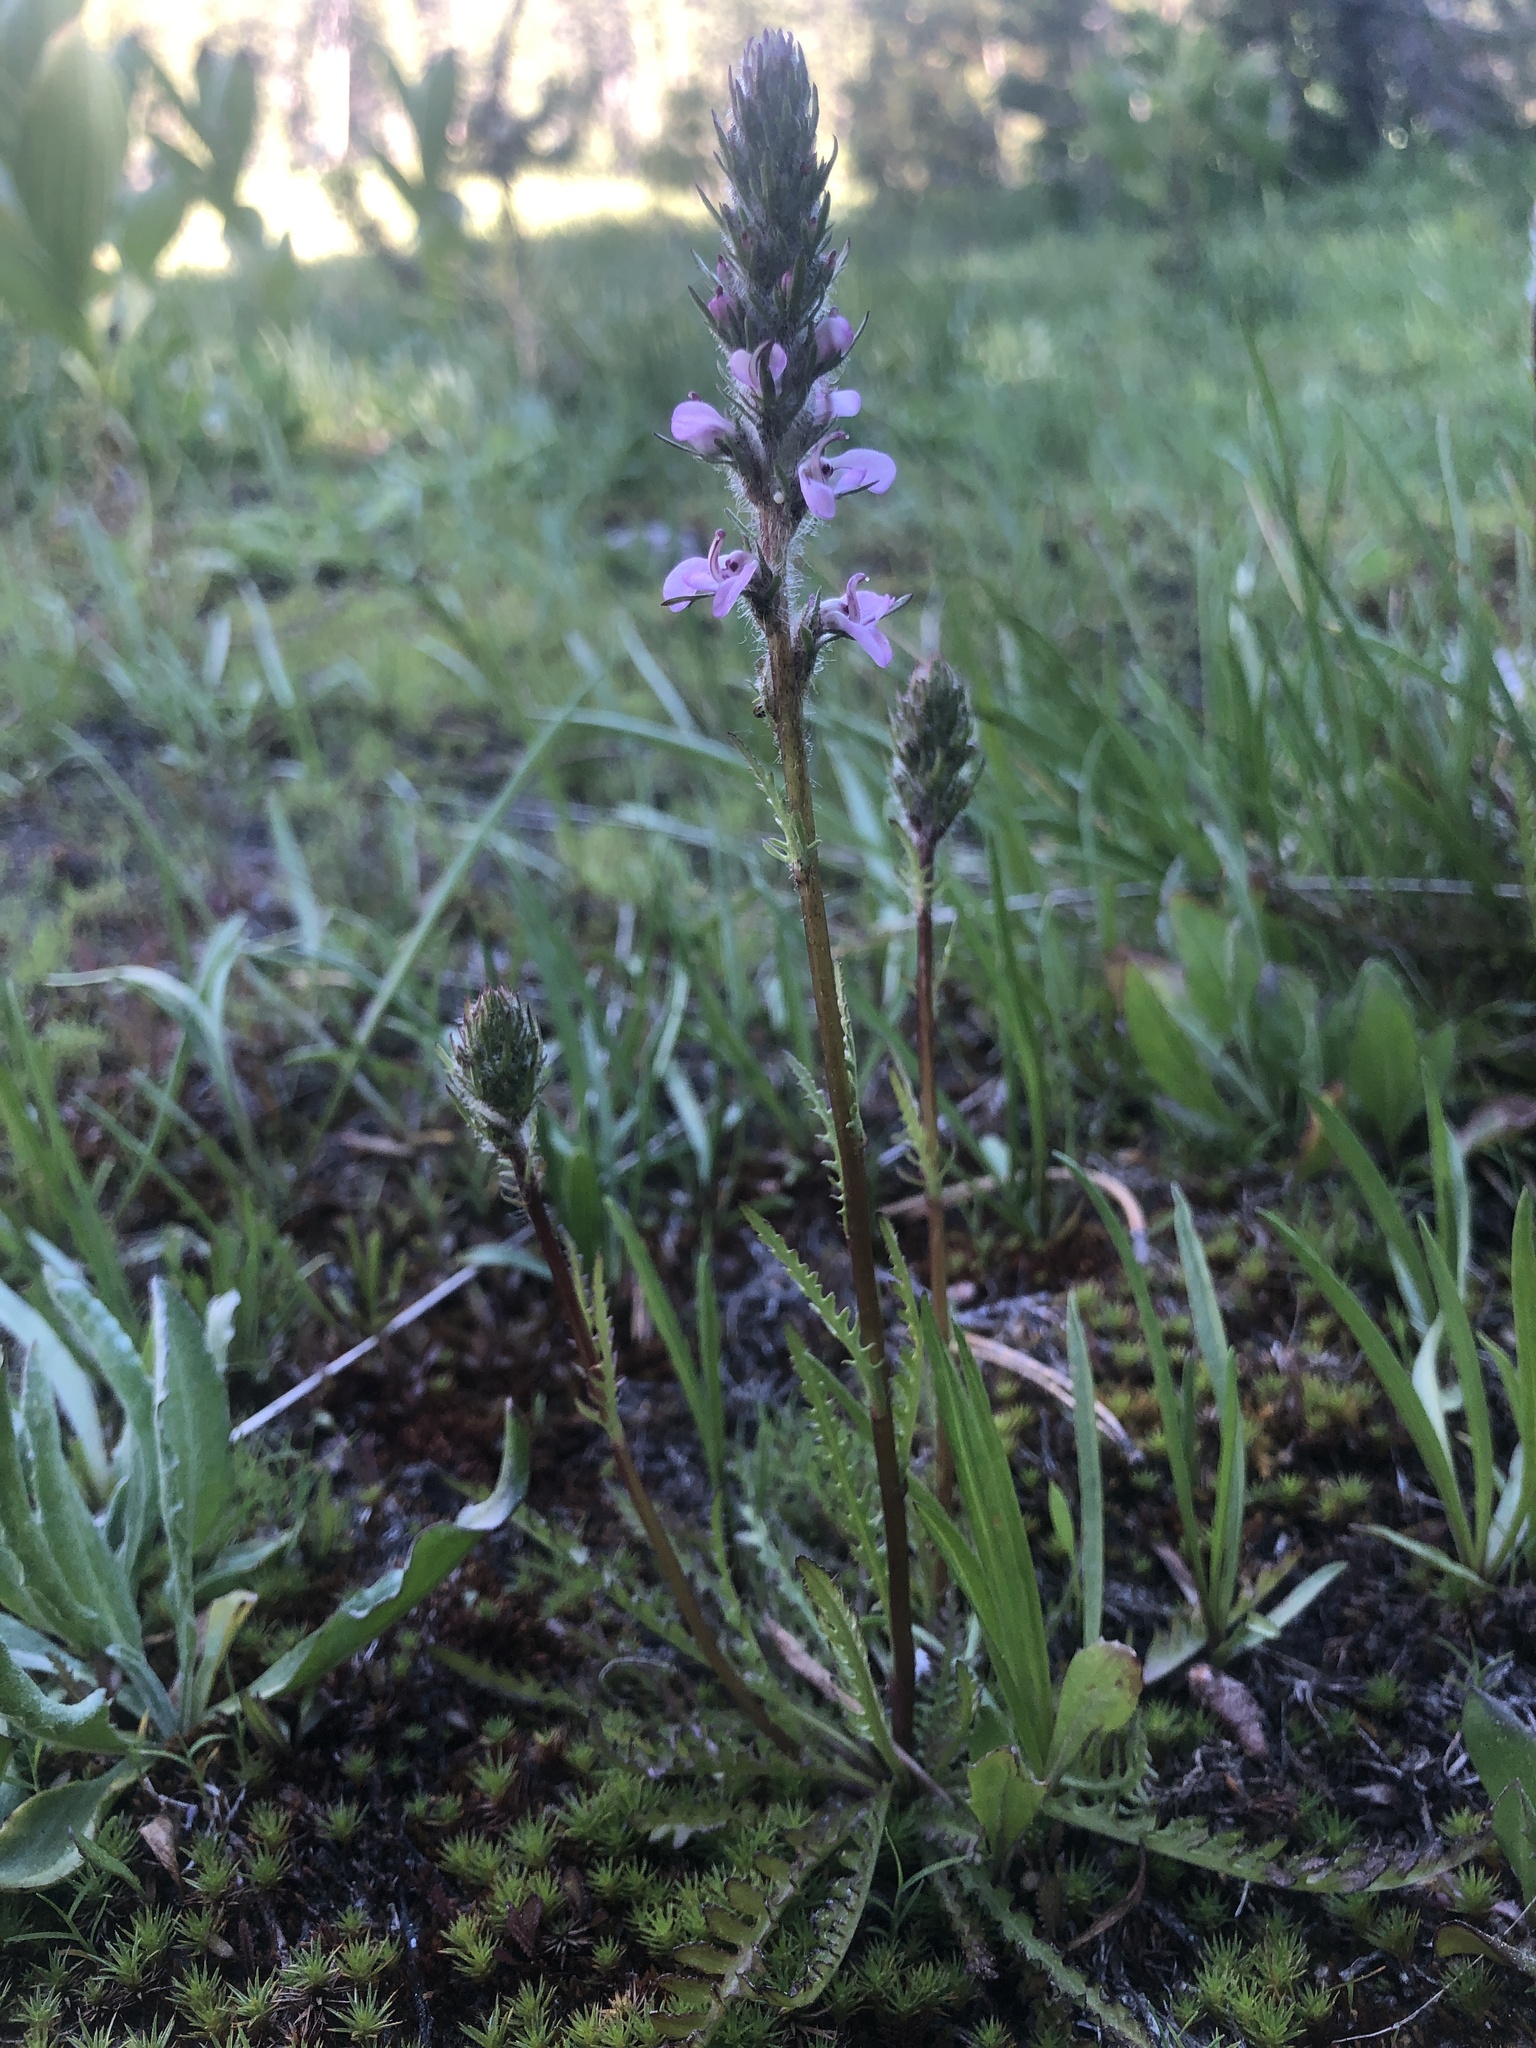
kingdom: Plantae
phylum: Tracheophyta
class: Magnoliopsida
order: Lamiales
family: Orobanchaceae
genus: Pedicularis
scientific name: Pedicularis attollens
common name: Slender pedicularis
